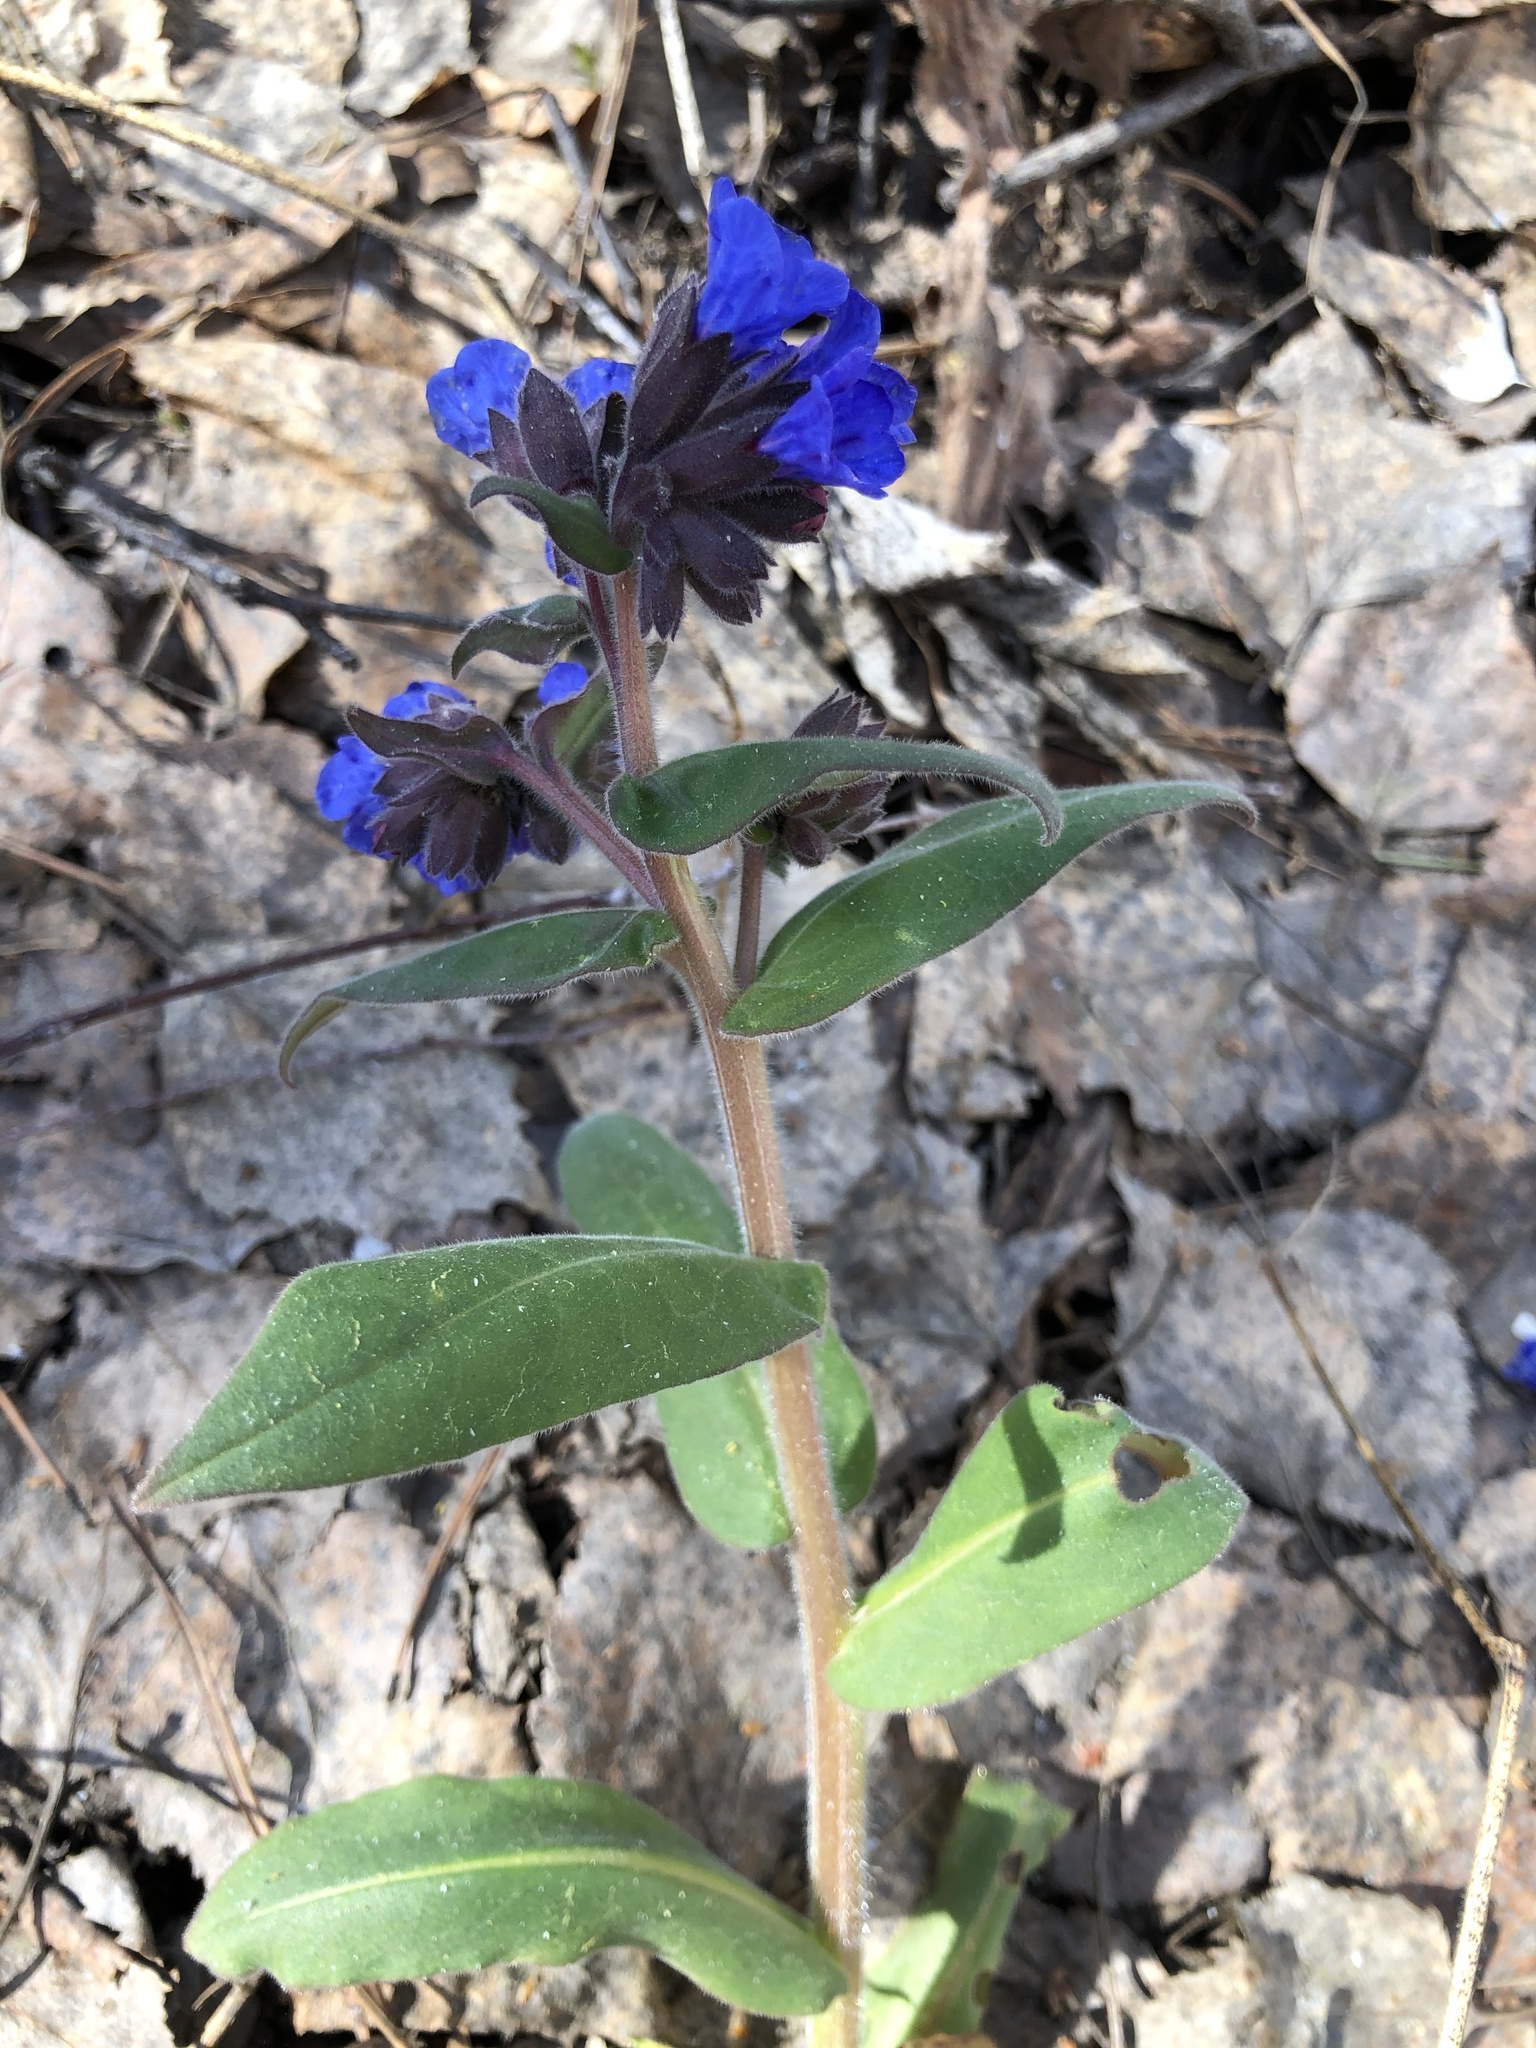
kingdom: Plantae
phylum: Tracheophyta
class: Magnoliopsida
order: Boraginales
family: Boraginaceae
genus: Pulmonaria
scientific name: Pulmonaria mollis
